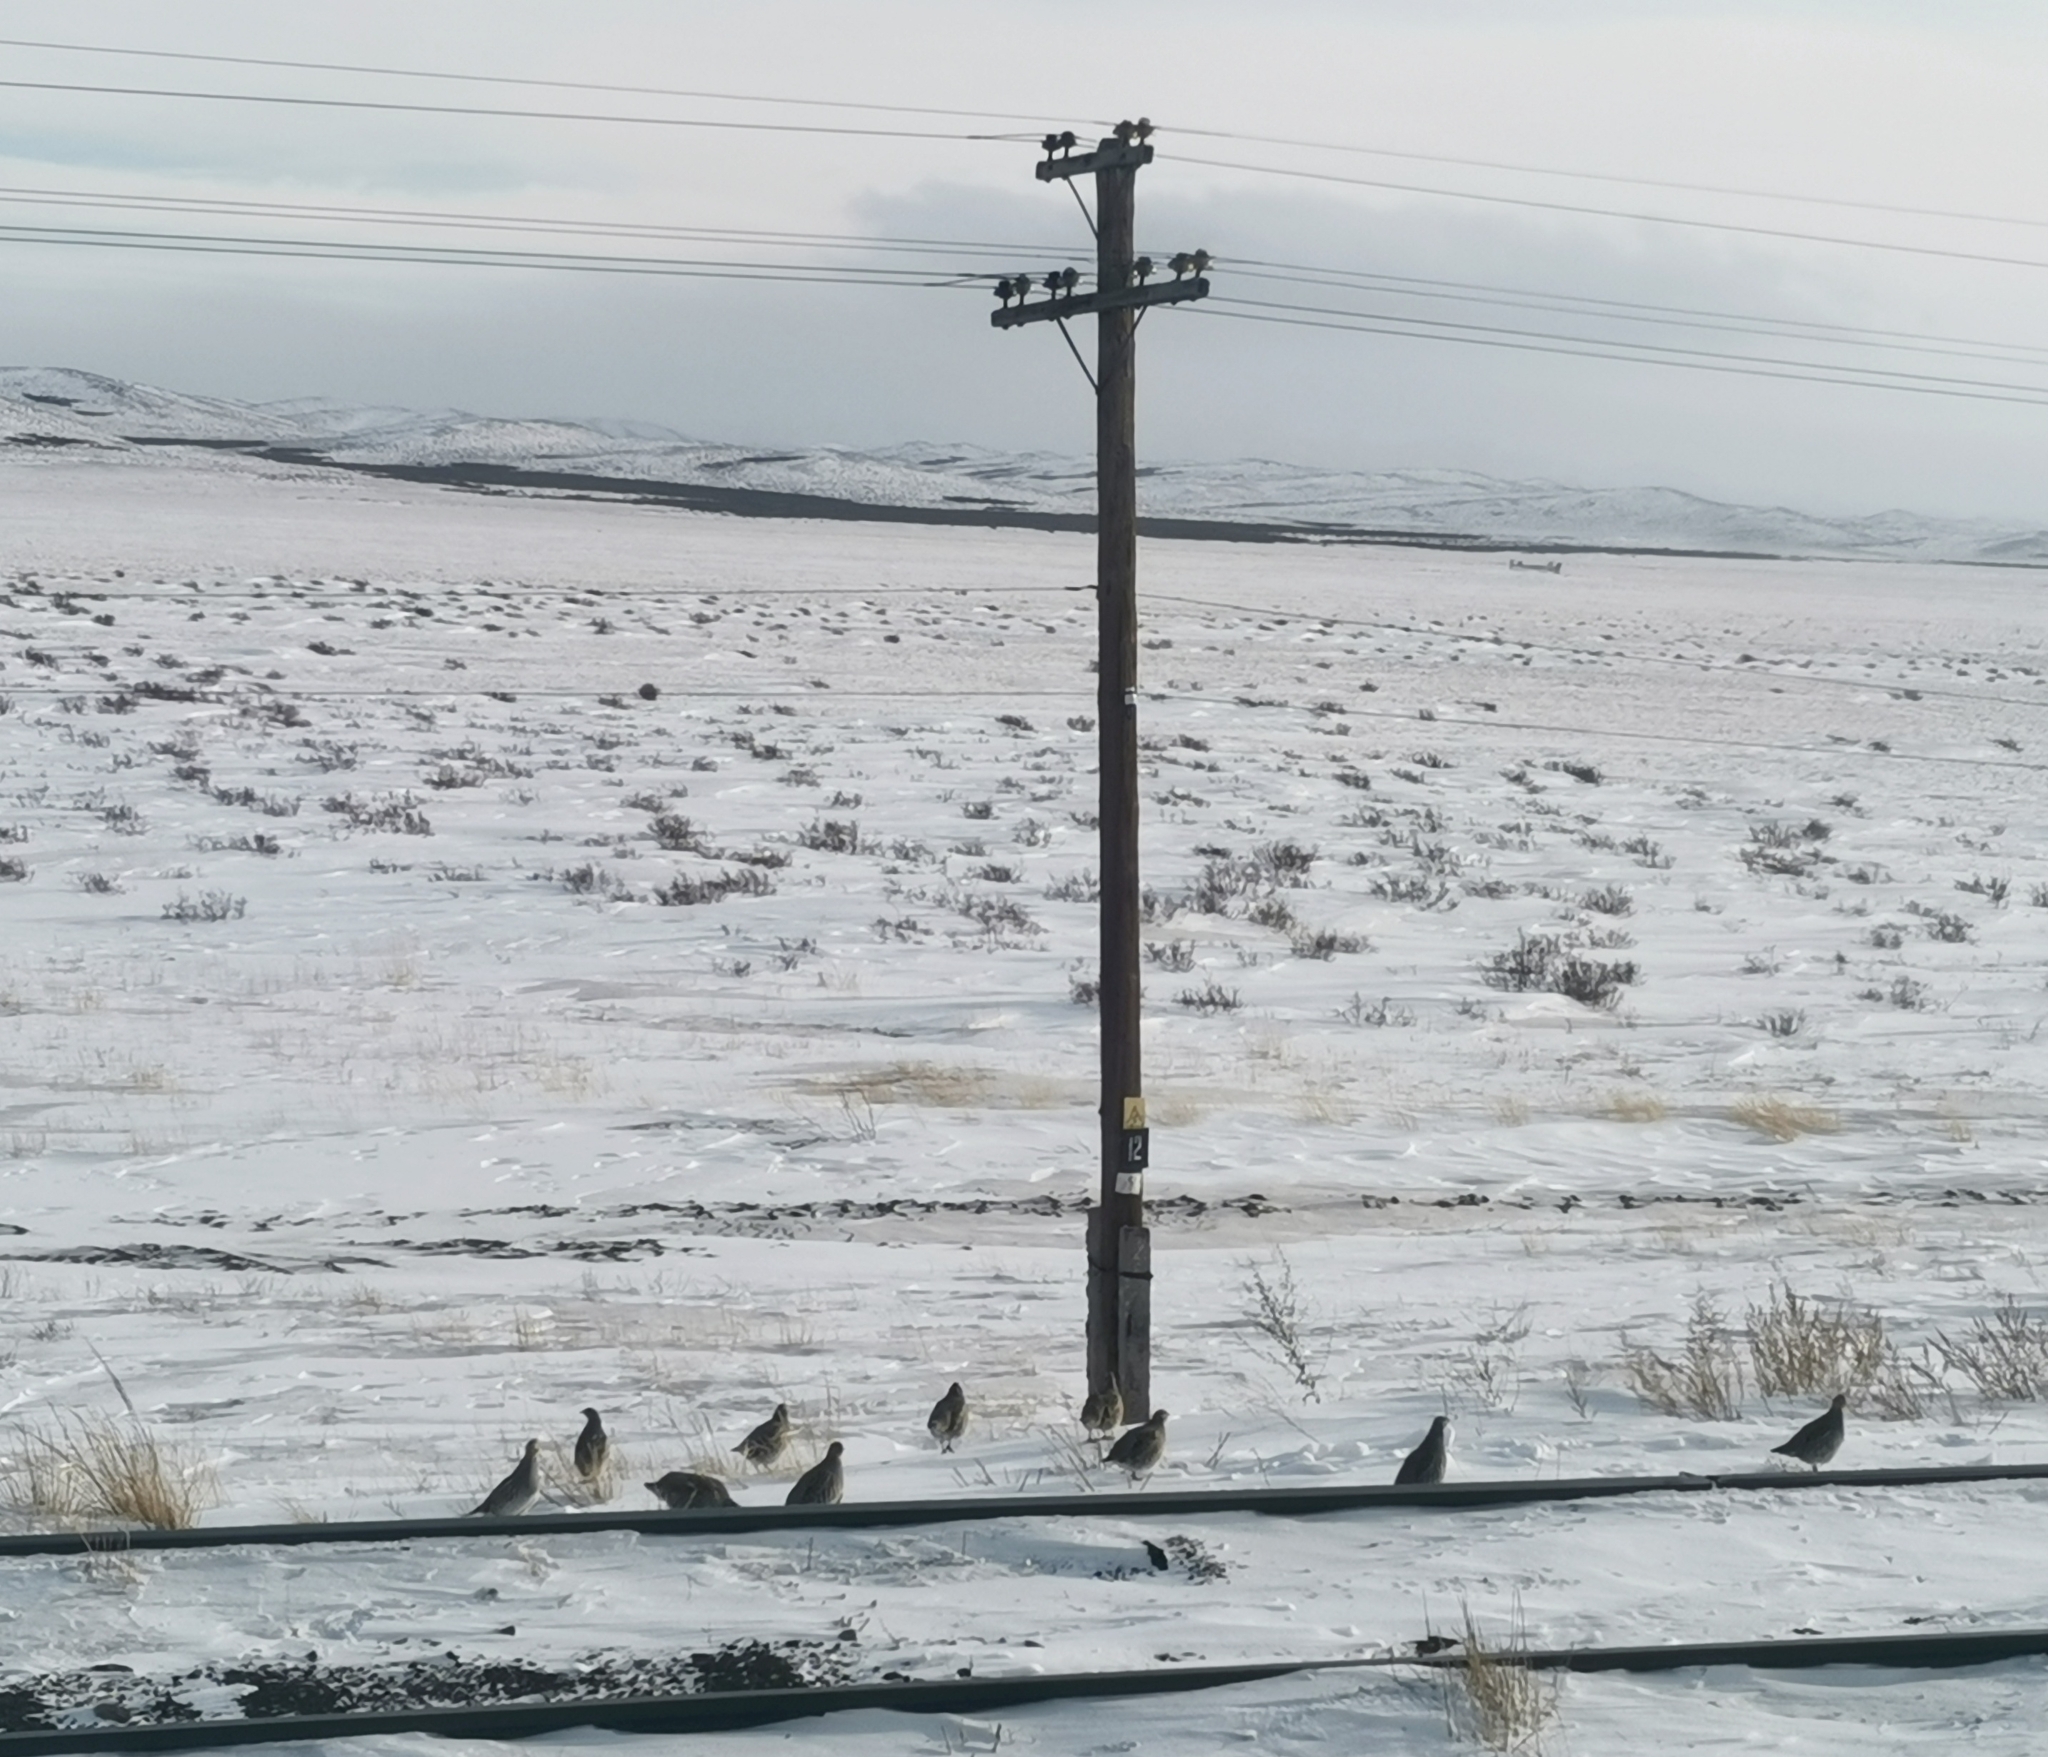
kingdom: Animalia
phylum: Chordata
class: Aves
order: Galliformes
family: Phasianidae
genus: Perdix
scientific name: Perdix perdix
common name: Grey partridge
